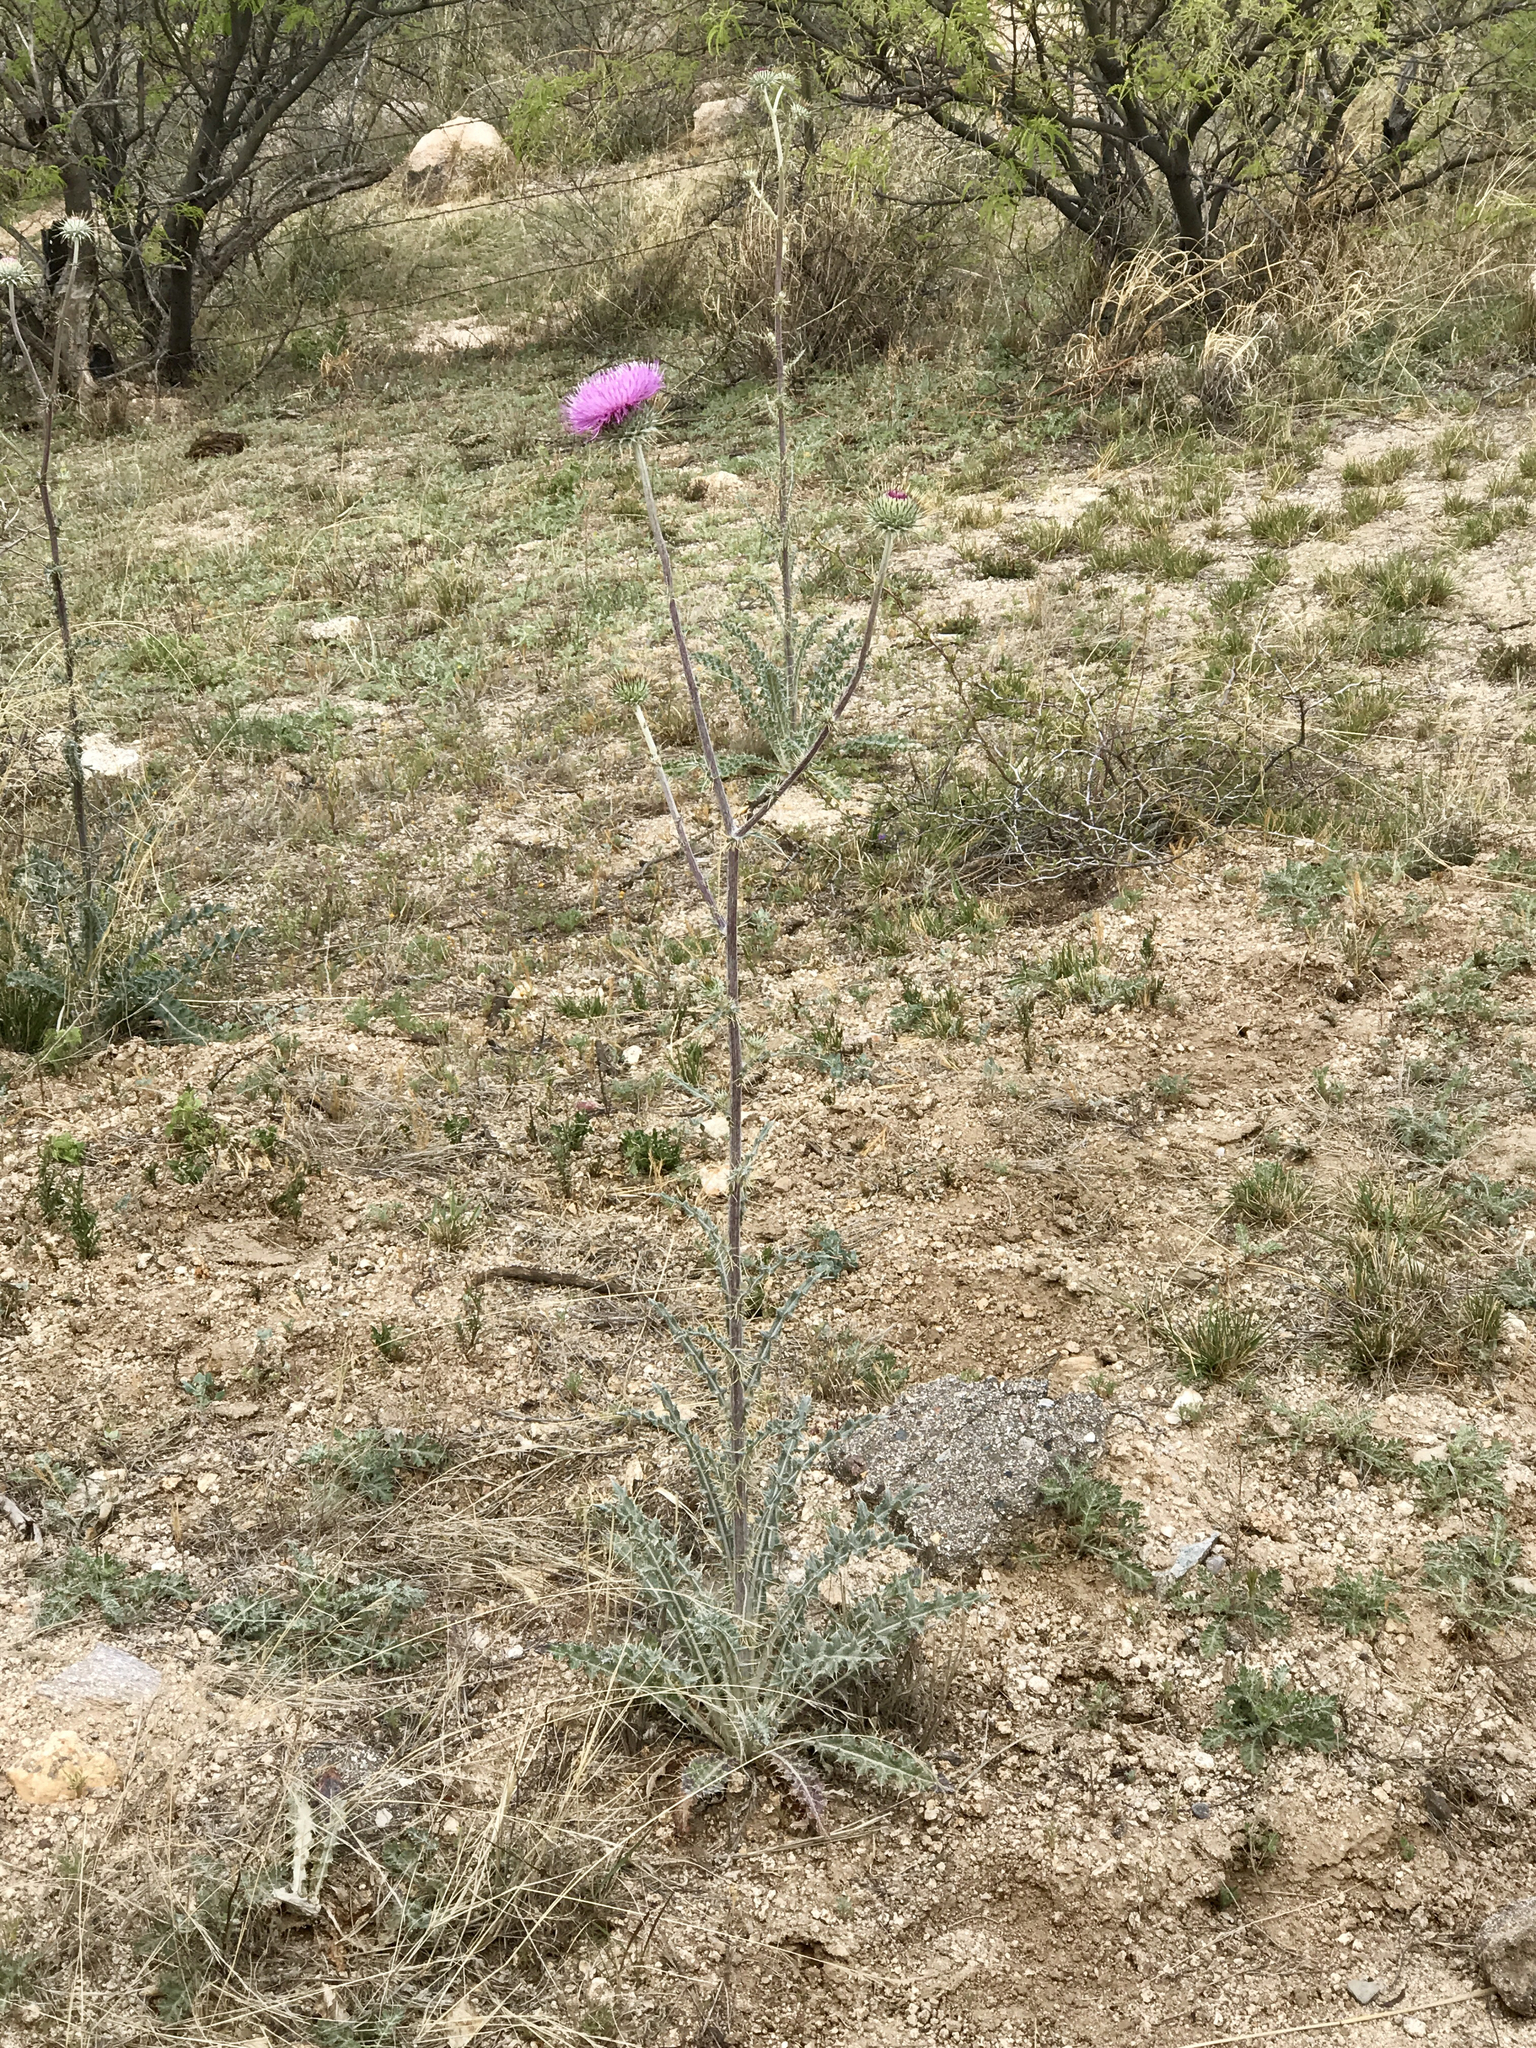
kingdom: Plantae
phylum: Tracheophyta
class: Magnoliopsida
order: Asterales
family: Asteraceae
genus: Cirsium
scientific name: Cirsium neomexicanum
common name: New mexico thistle
